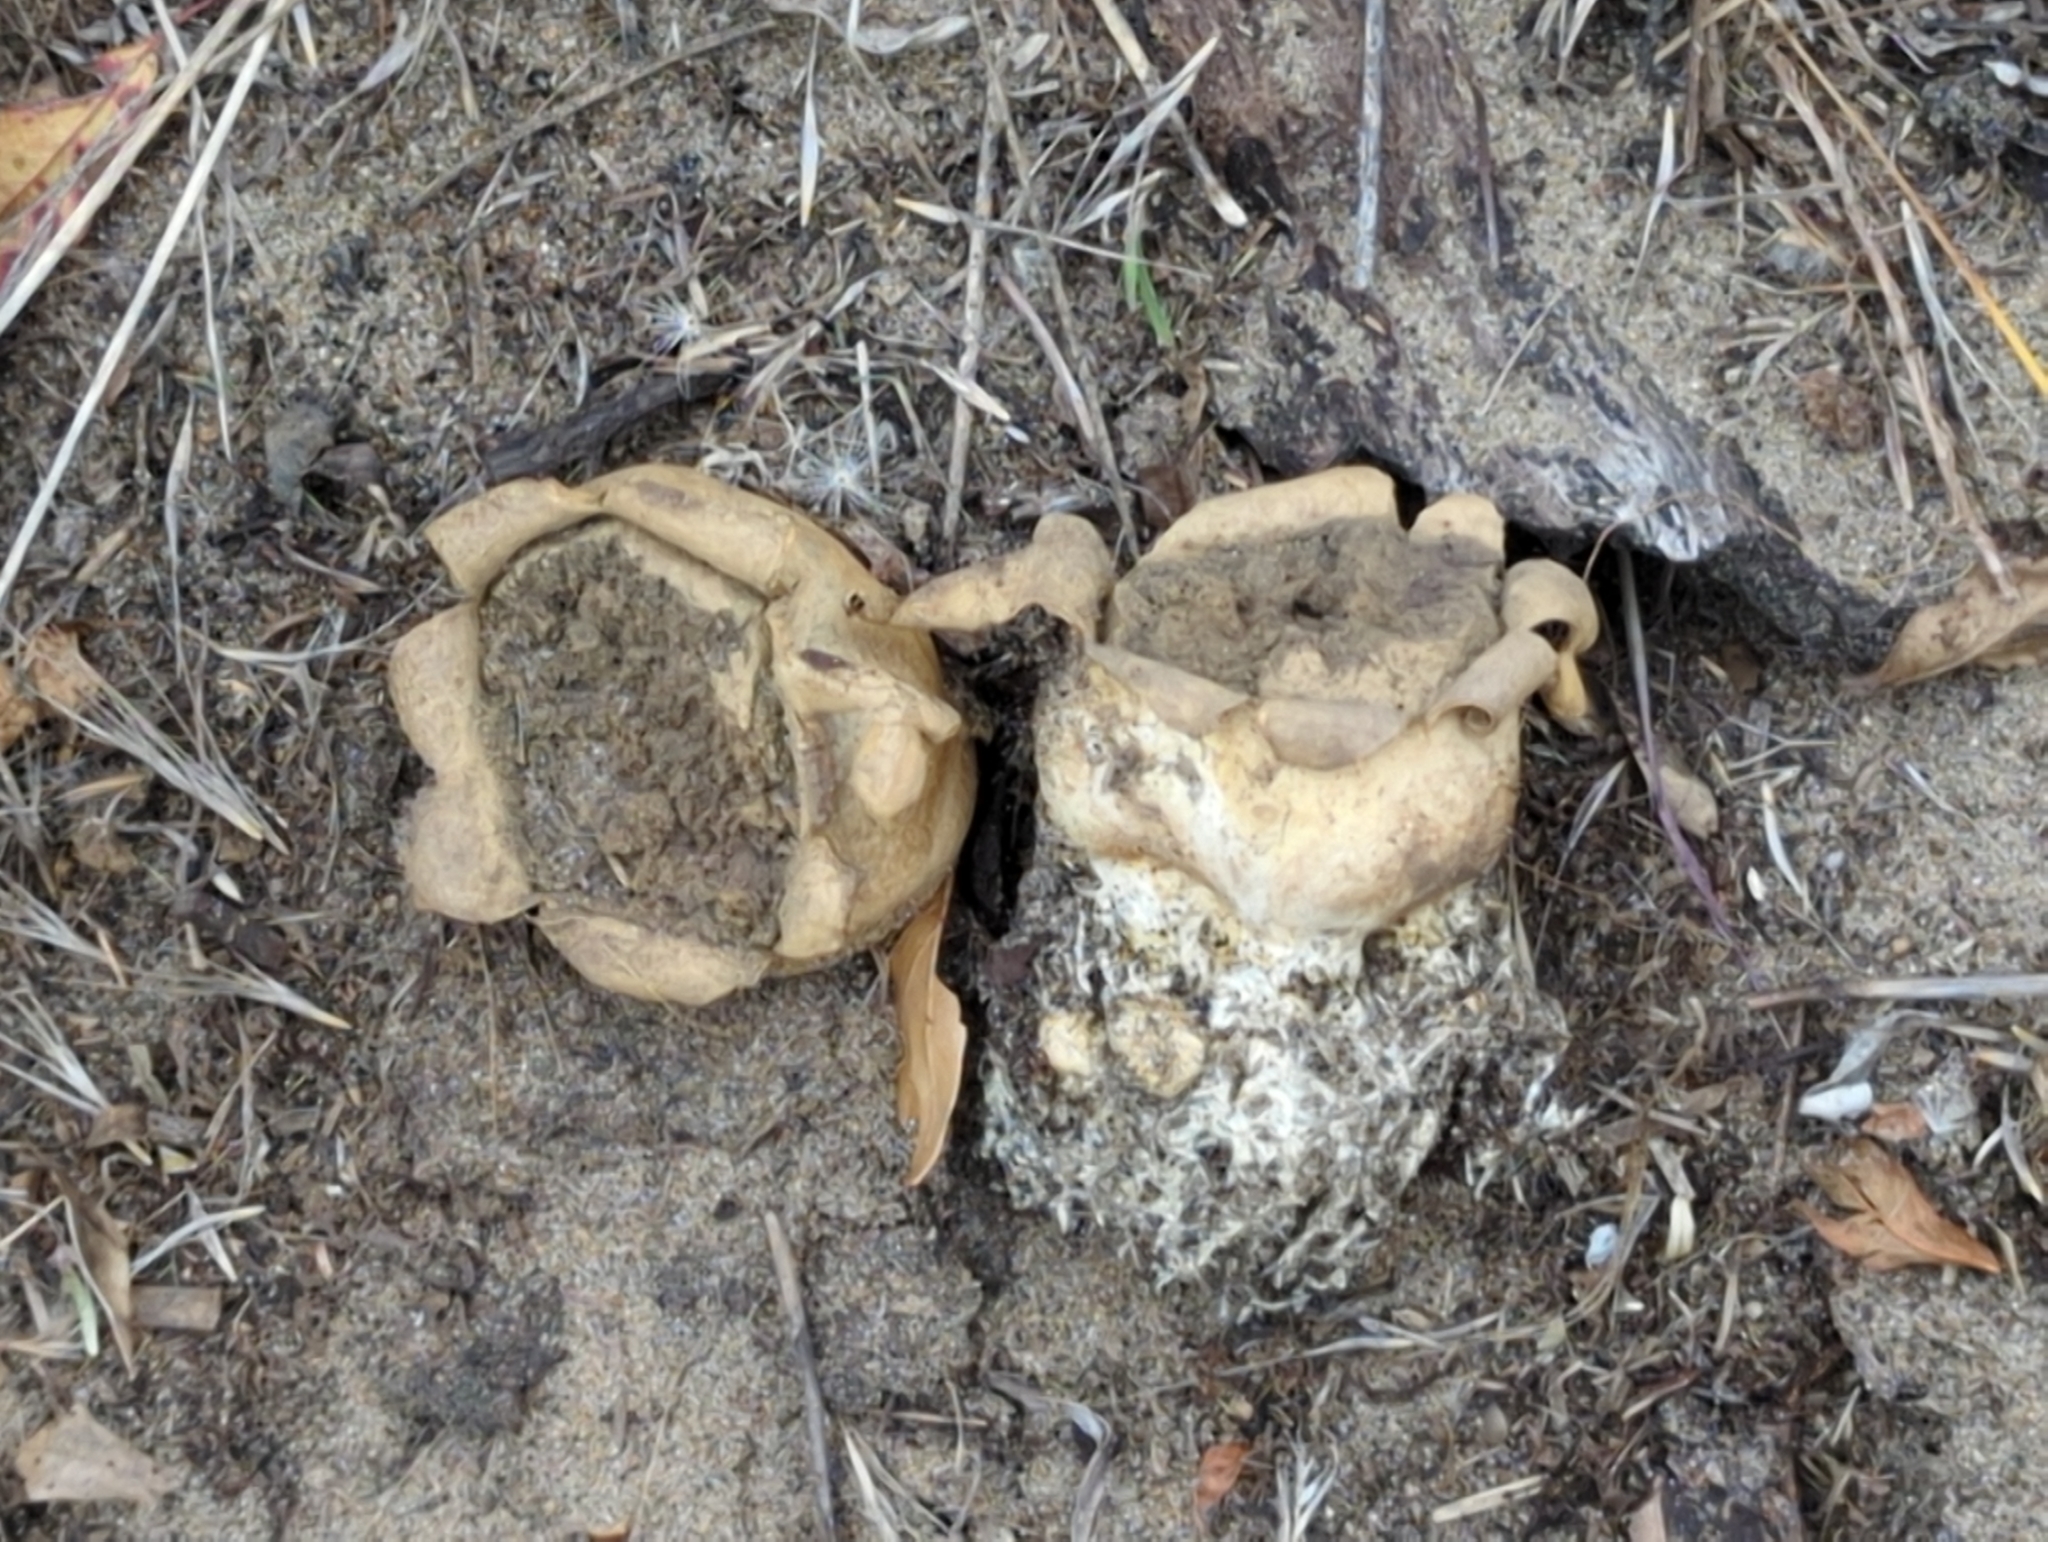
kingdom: Fungi
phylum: Basidiomycota
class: Agaricomycetes
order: Boletales
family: Sclerodermataceae
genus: Scleroderma
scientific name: Scleroderma cepa
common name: Onion earthball
